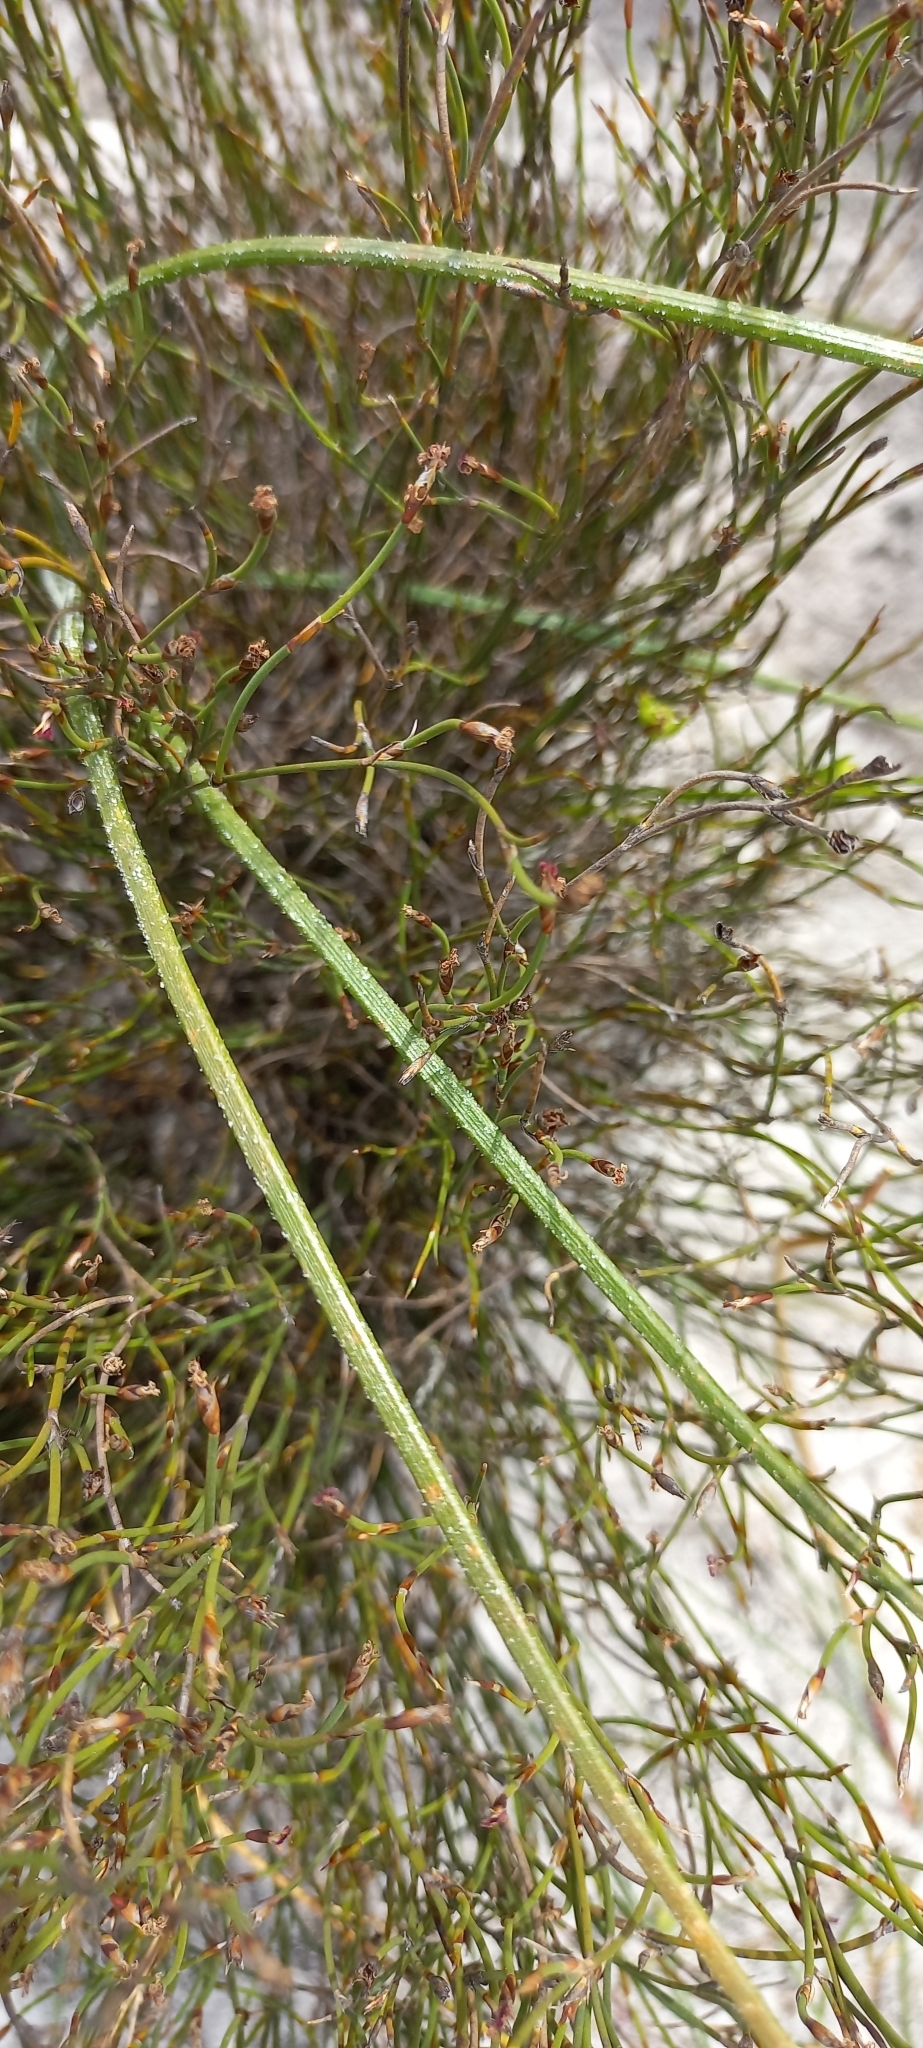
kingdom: Plantae
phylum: Tracheophyta
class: Liliopsida
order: Asparagales
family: Asparagaceae
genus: Drimia
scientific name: Drimia exuviata
